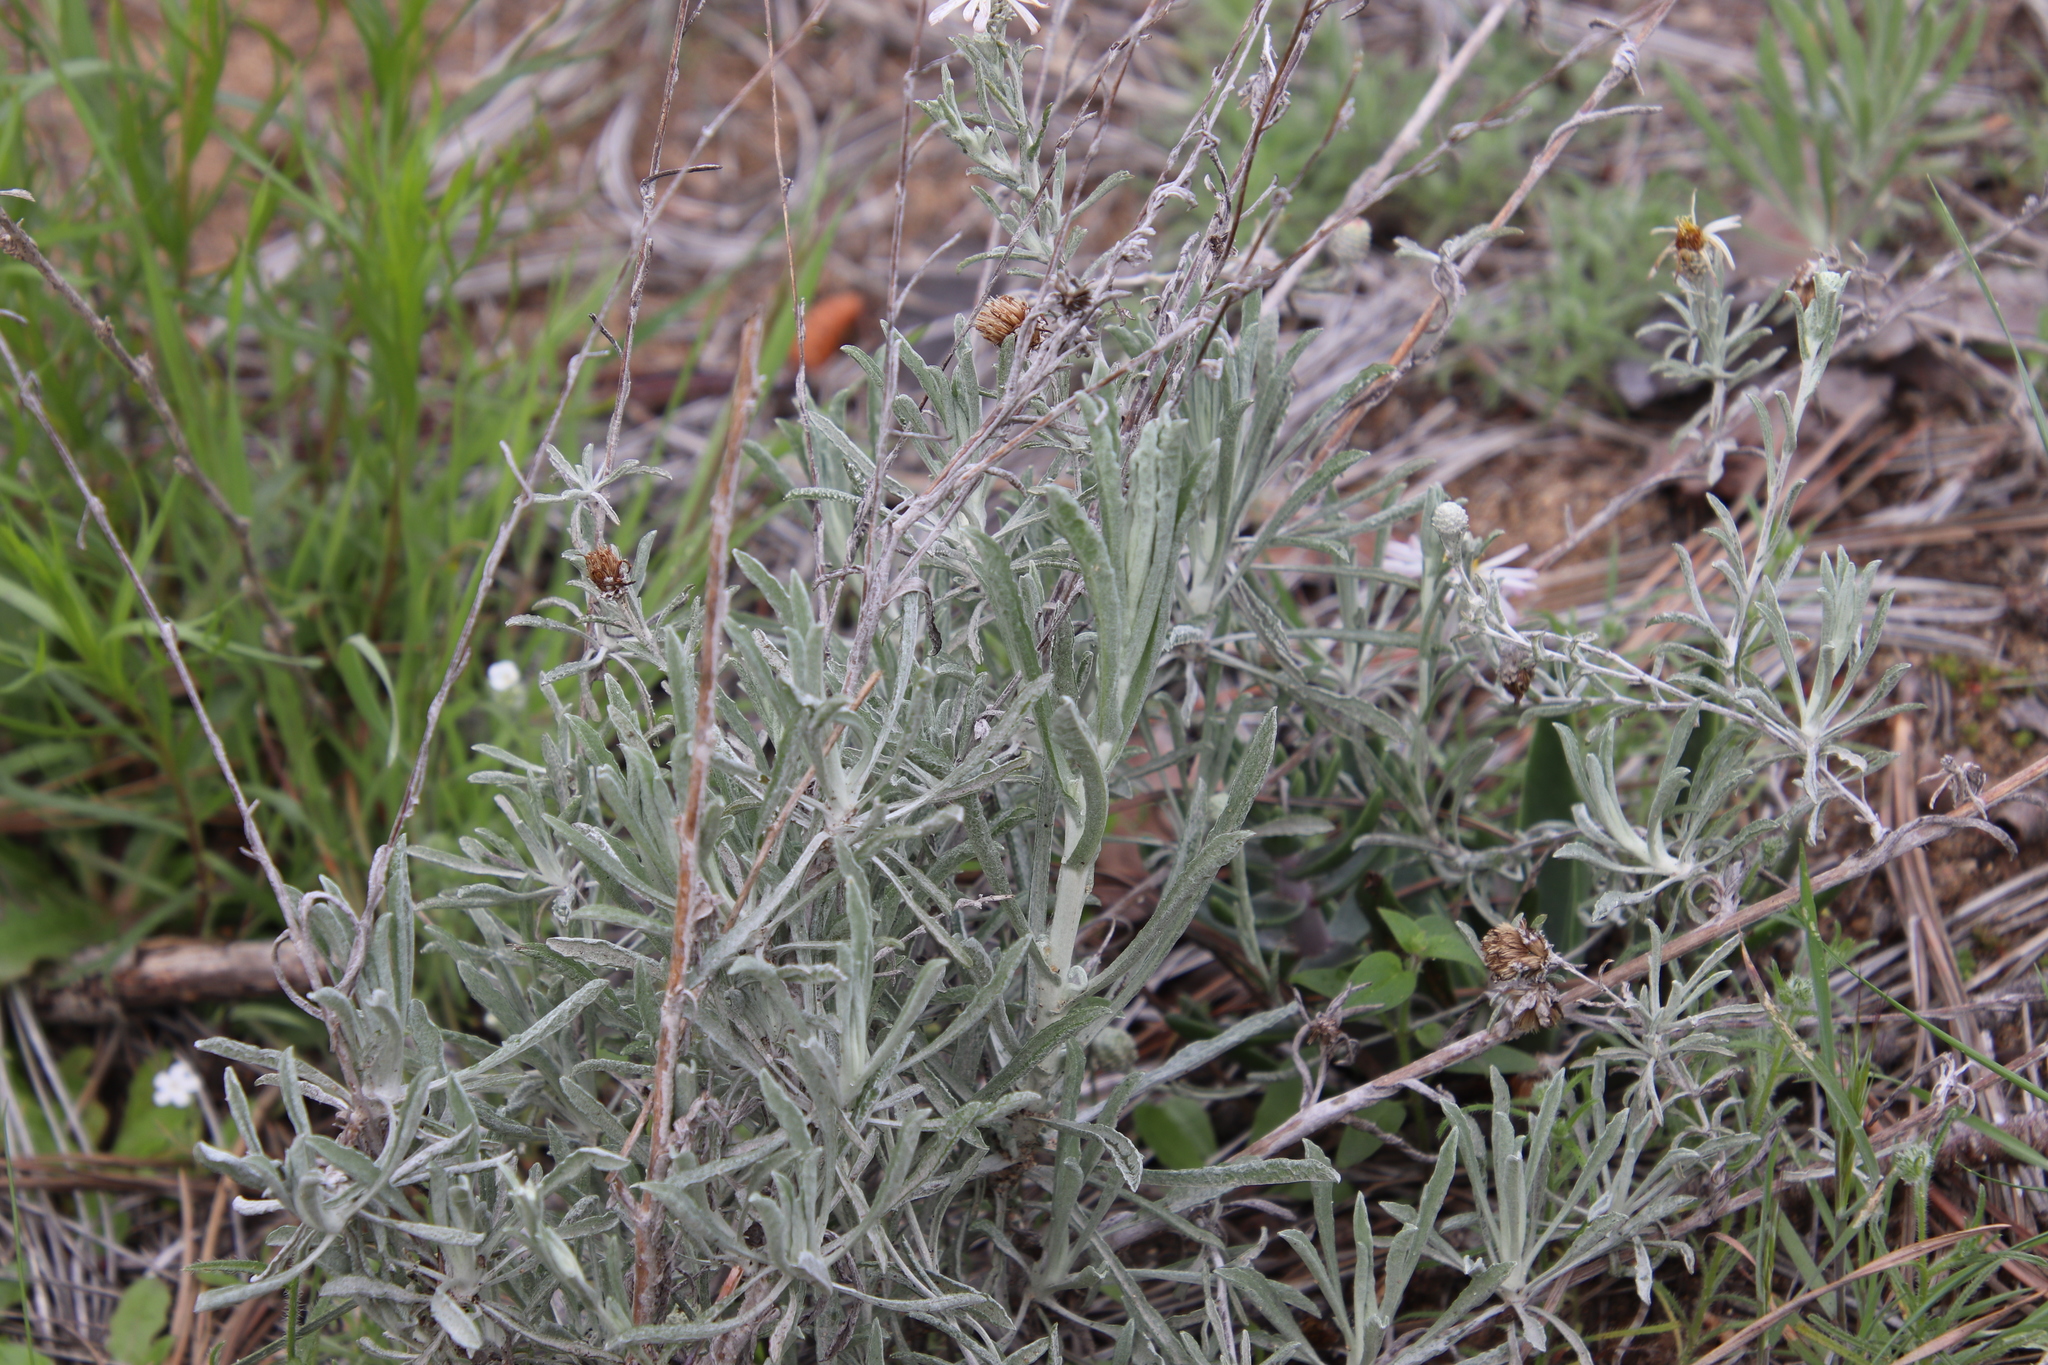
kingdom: Plantae
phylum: Tracheophyta
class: Magnoliopsida
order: Asterales
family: Asteraceae
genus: Corethrogyne
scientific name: Corethrogyne filaginifolia
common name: Sand-aster
